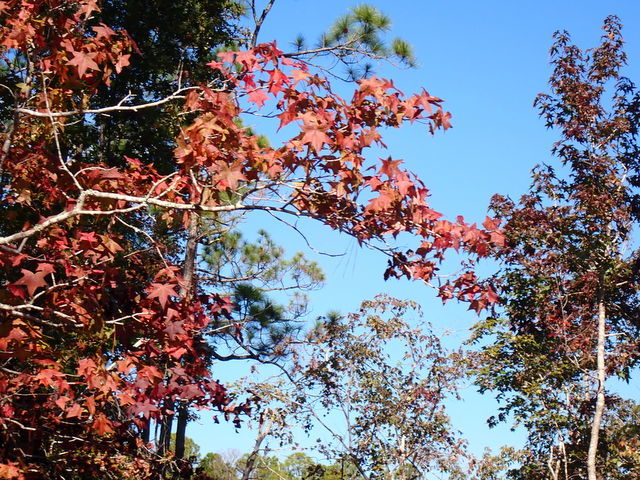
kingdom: Plantae
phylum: Tracheophyta
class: Magnoliopsida
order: Saxifragales
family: Altingiaceae
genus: Liquidambar
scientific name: Liquidambar styraciflua
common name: Sweet gum
